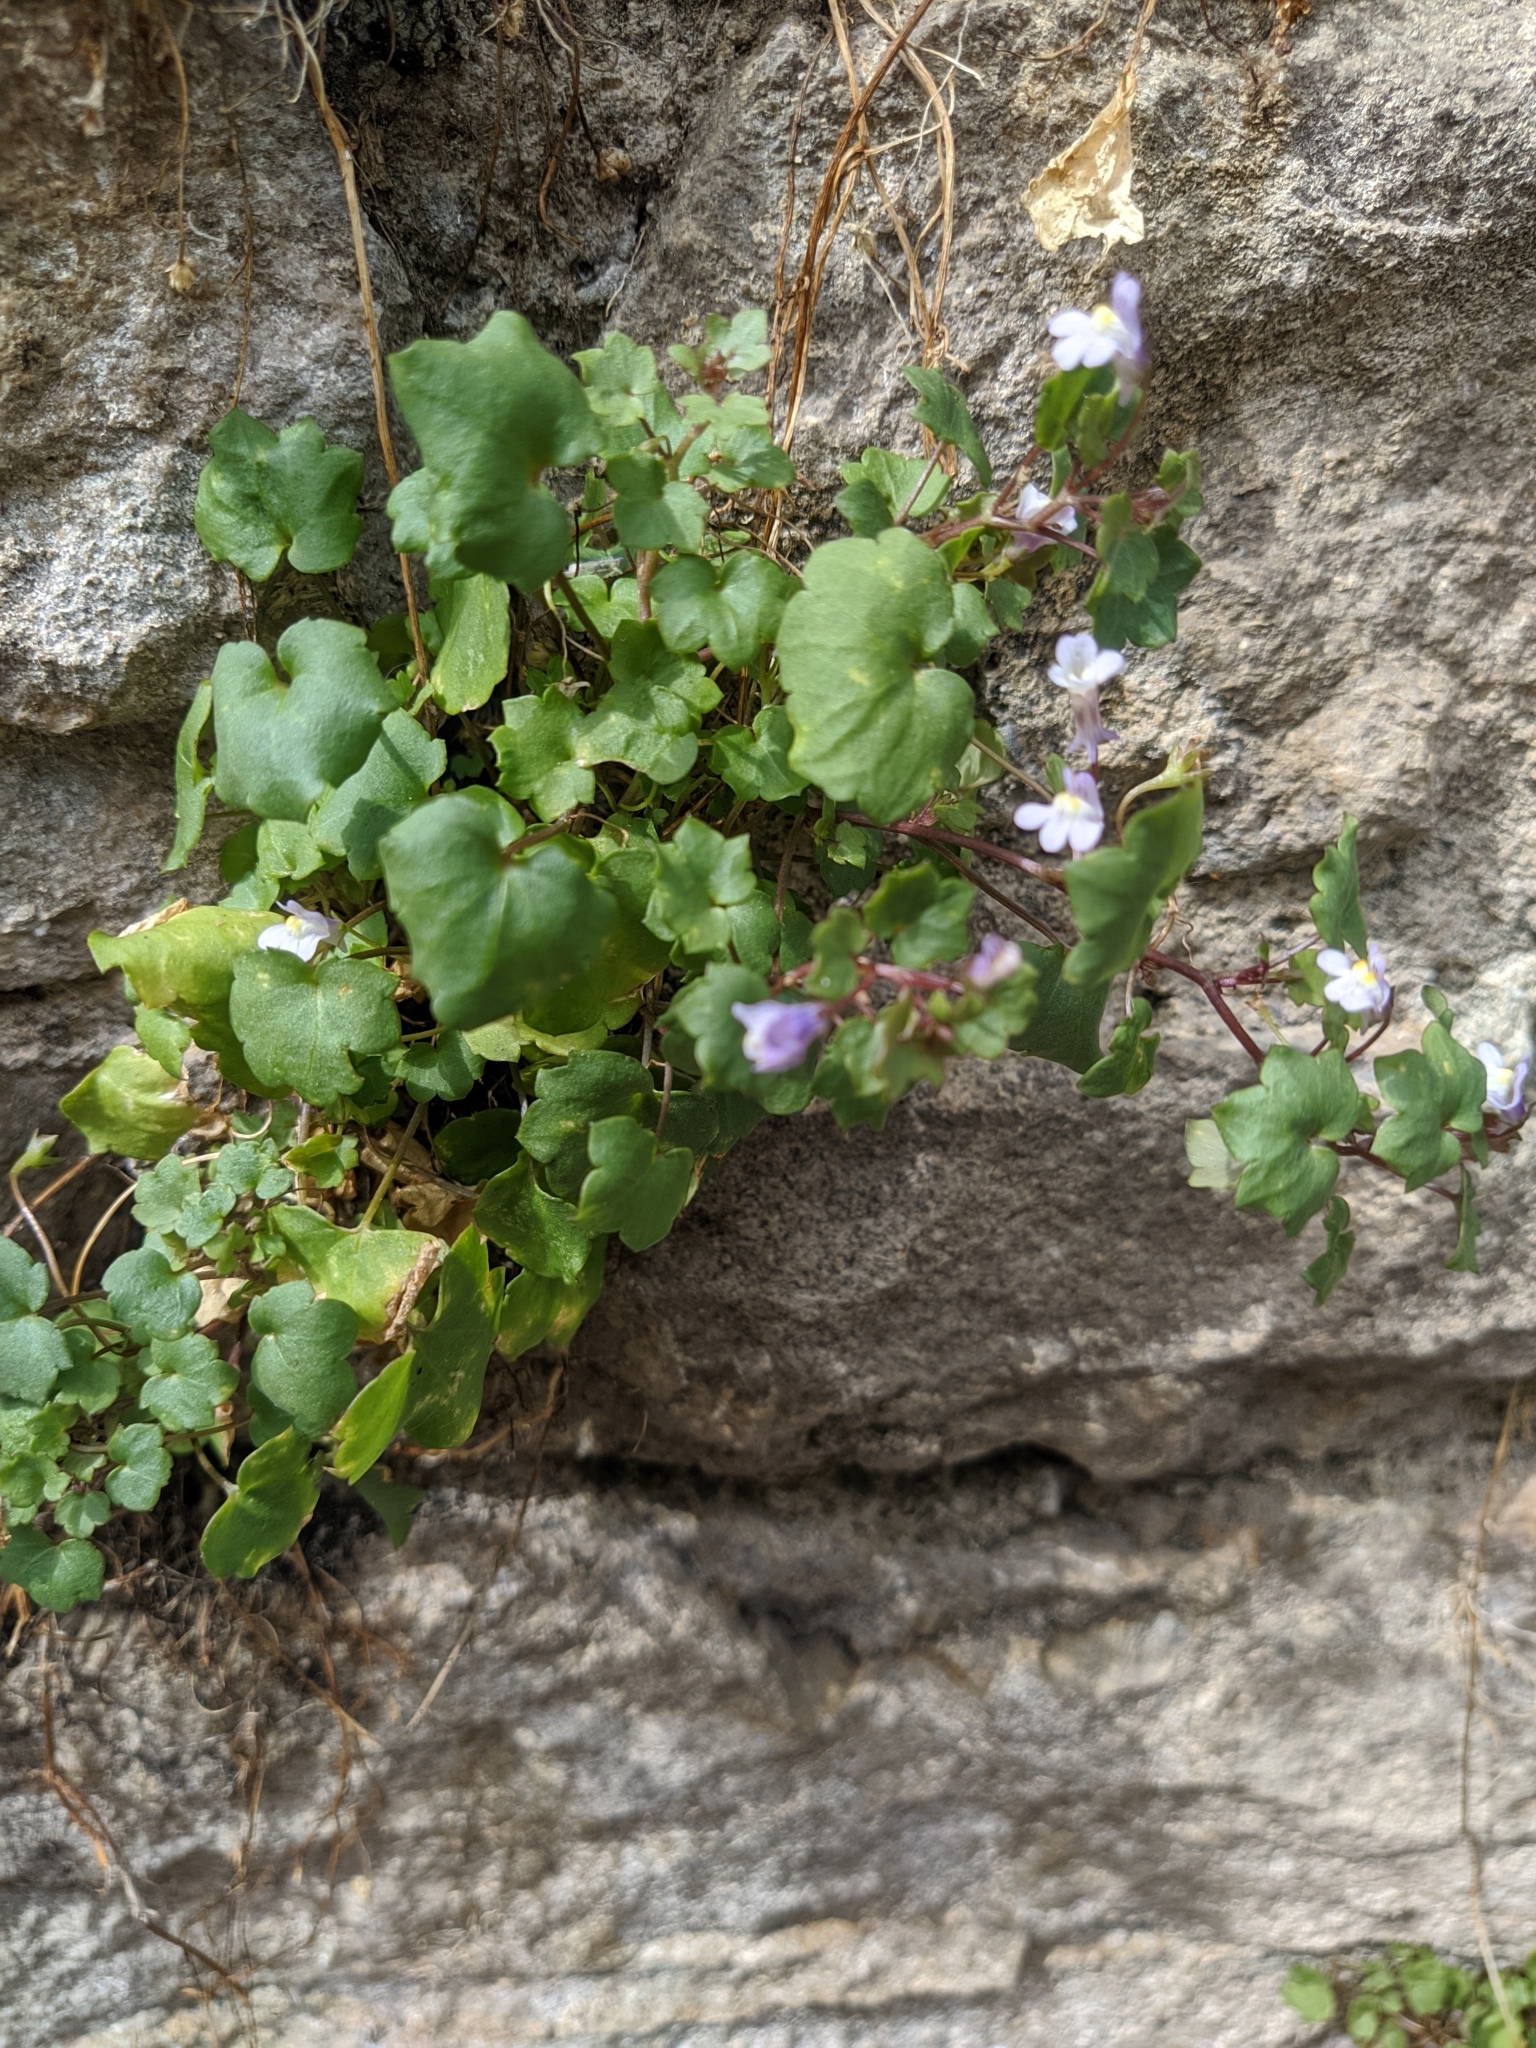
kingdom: Plantae
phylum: Tracheophyta
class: Magnoliopsida
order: Lamiales
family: Plantaginaceae
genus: Cymbalaria
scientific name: Cymbalaria muralis
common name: Ivy-leaved toadflax
